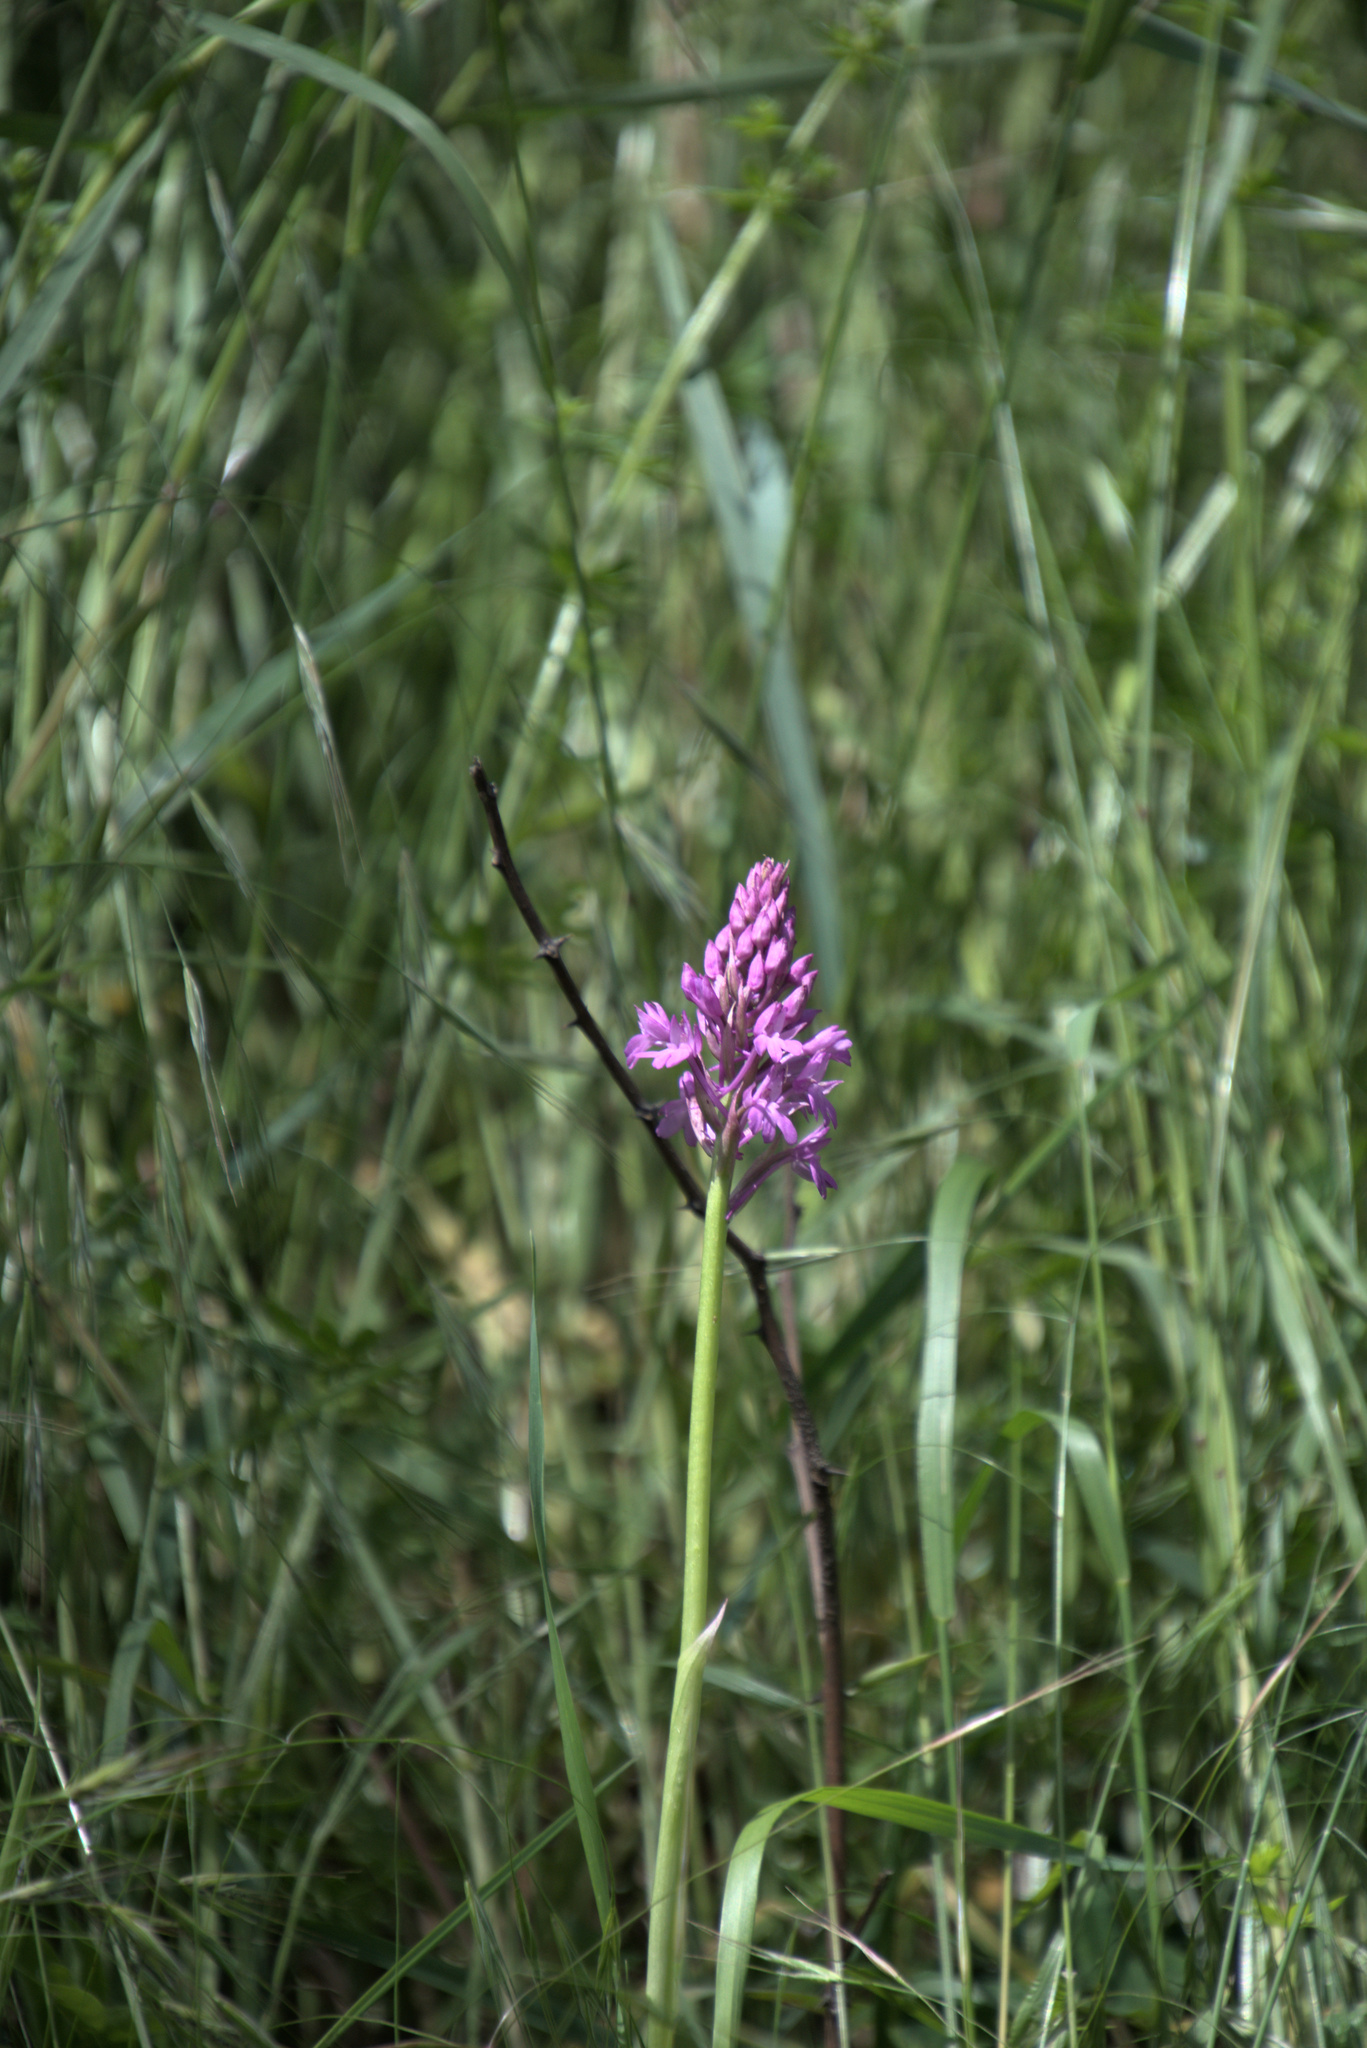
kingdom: Plantae
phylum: Tracheophyta
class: Liliopsida
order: Asparagales
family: Orchidaceae
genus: Anacamptis
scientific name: Anacamptis pyramidalis
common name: Pyramidal orchid
